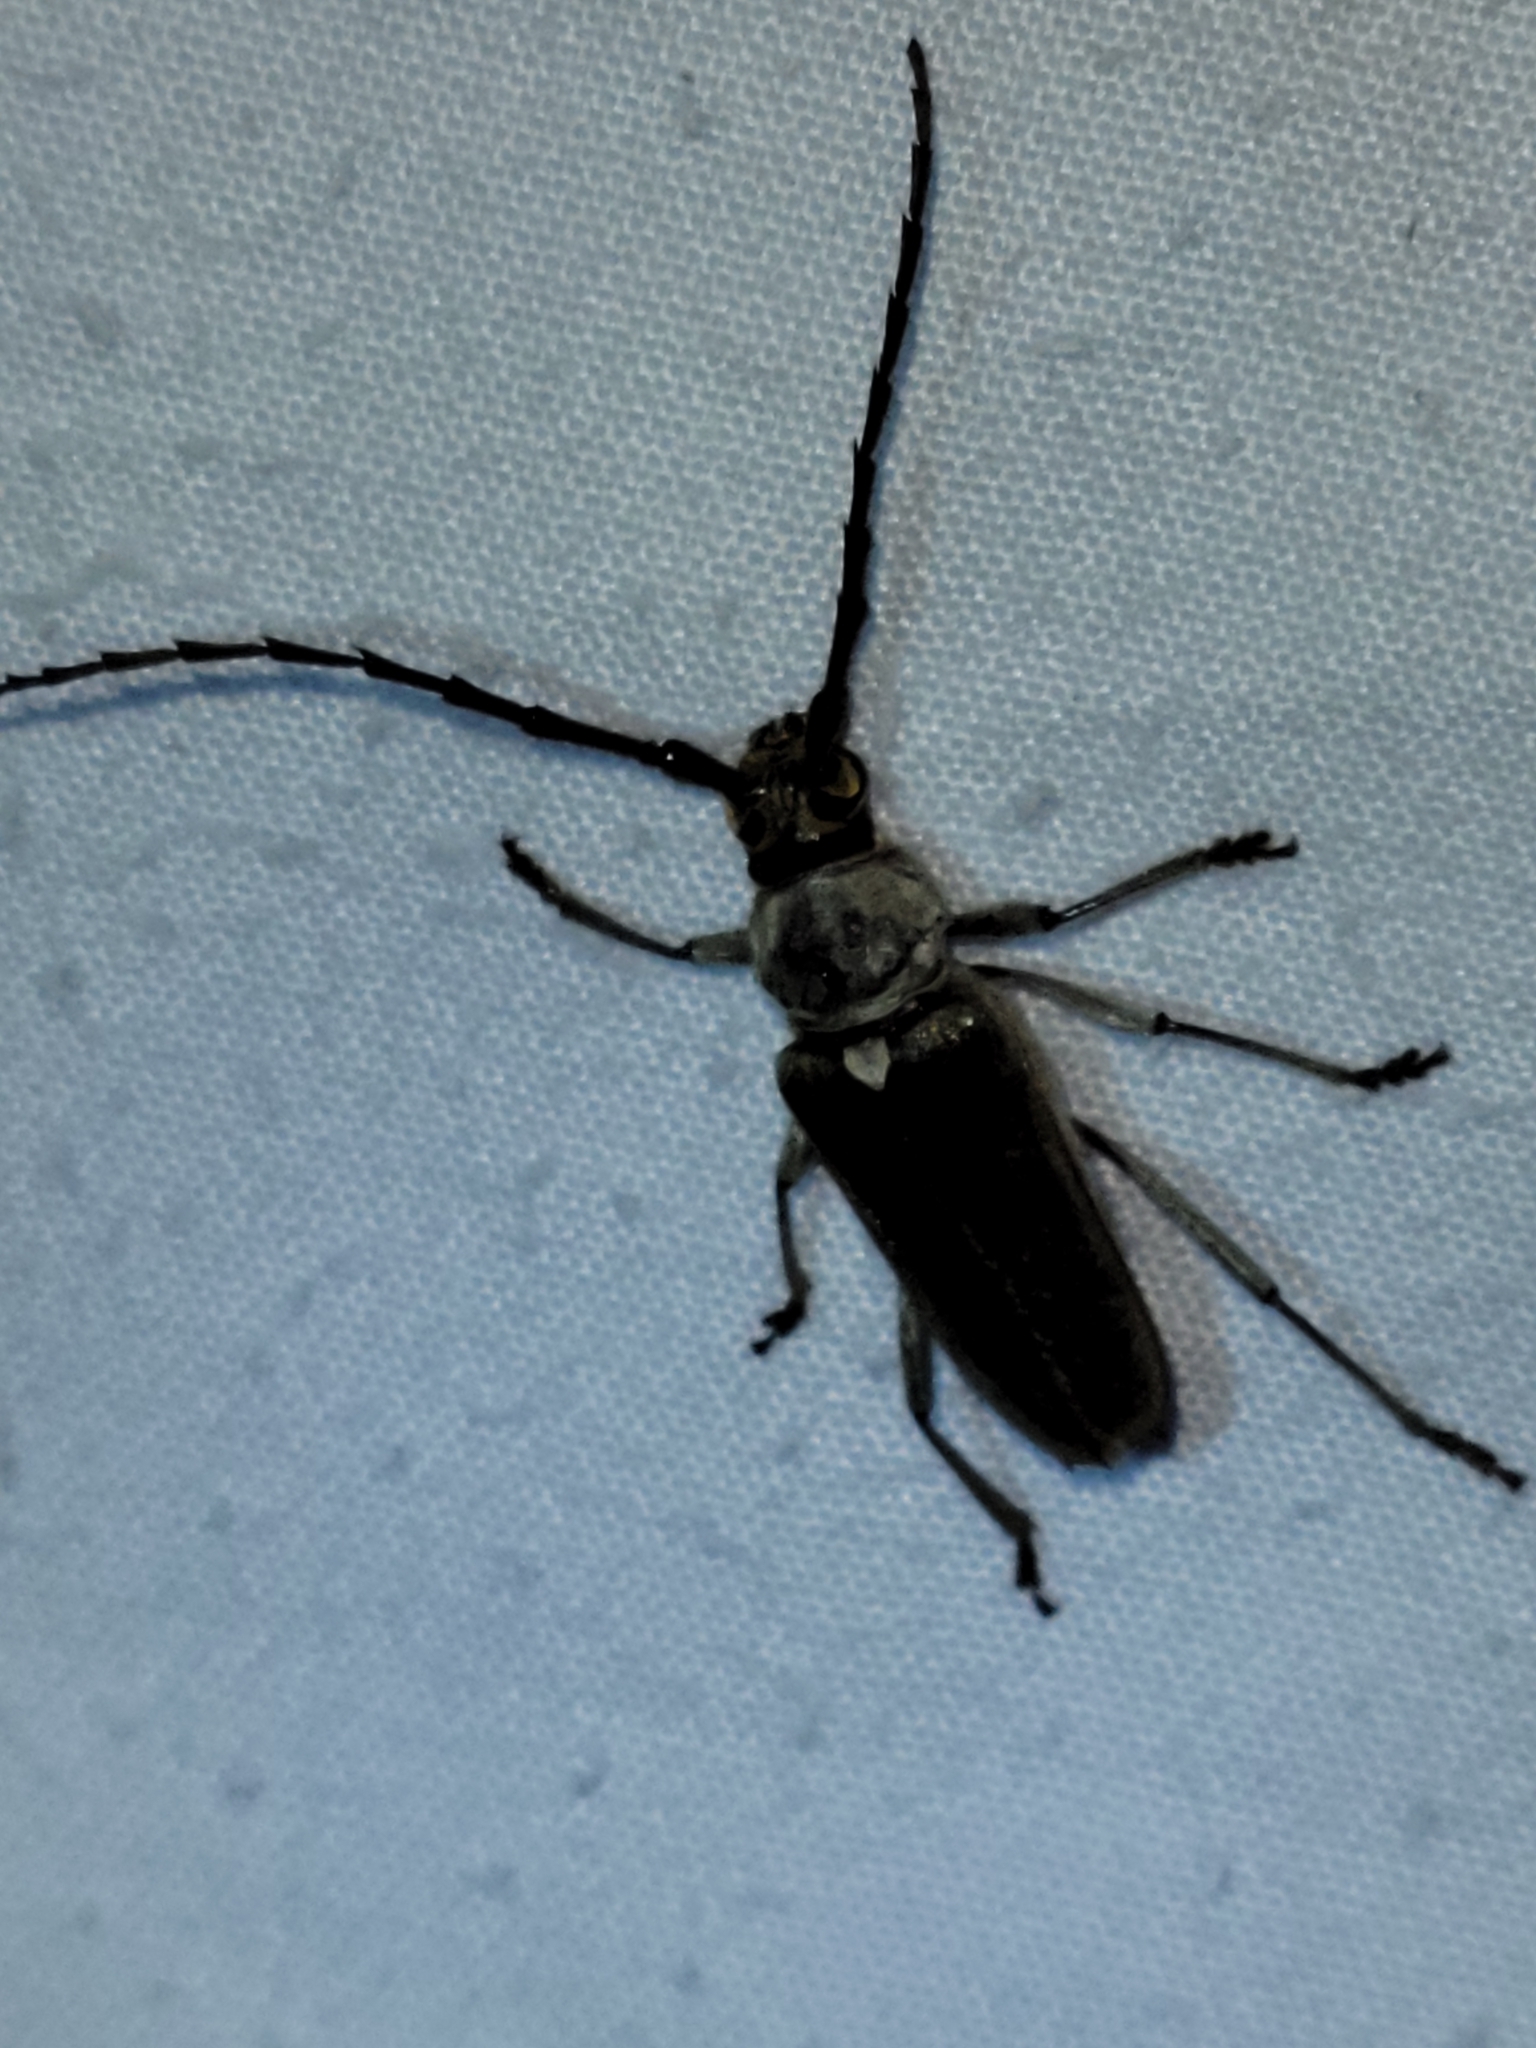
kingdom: Animalia
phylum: Arthropoda
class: Insecta
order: Coleoptera
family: Cerambycidae
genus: Gnaphalodes
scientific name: Gnaphalodes trachyderoides
